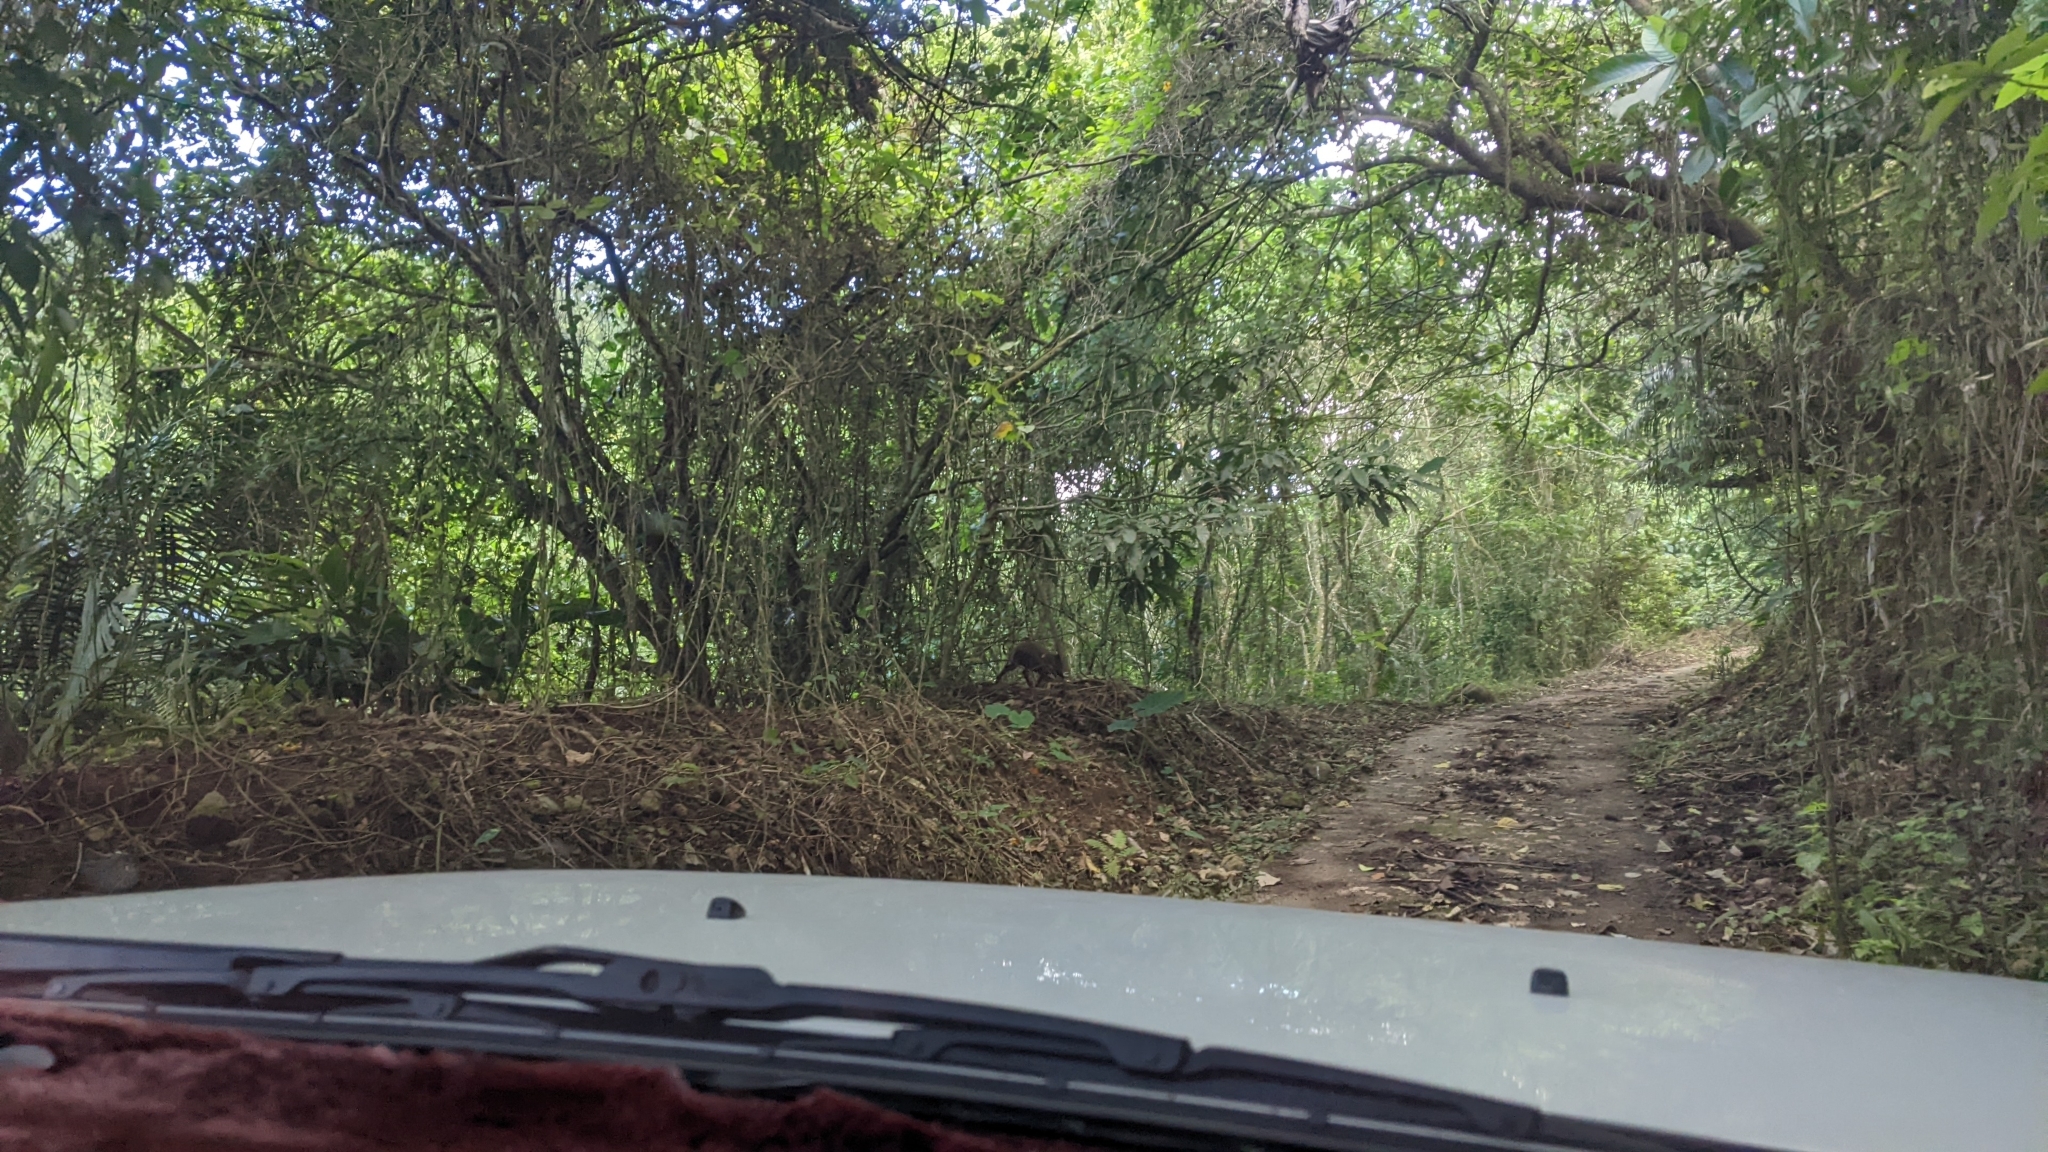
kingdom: Animalia
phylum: Chordata
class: Mammalia
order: Artiodactyla
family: Suidae
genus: Sus
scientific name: Sus scrofa
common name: Wild boar
